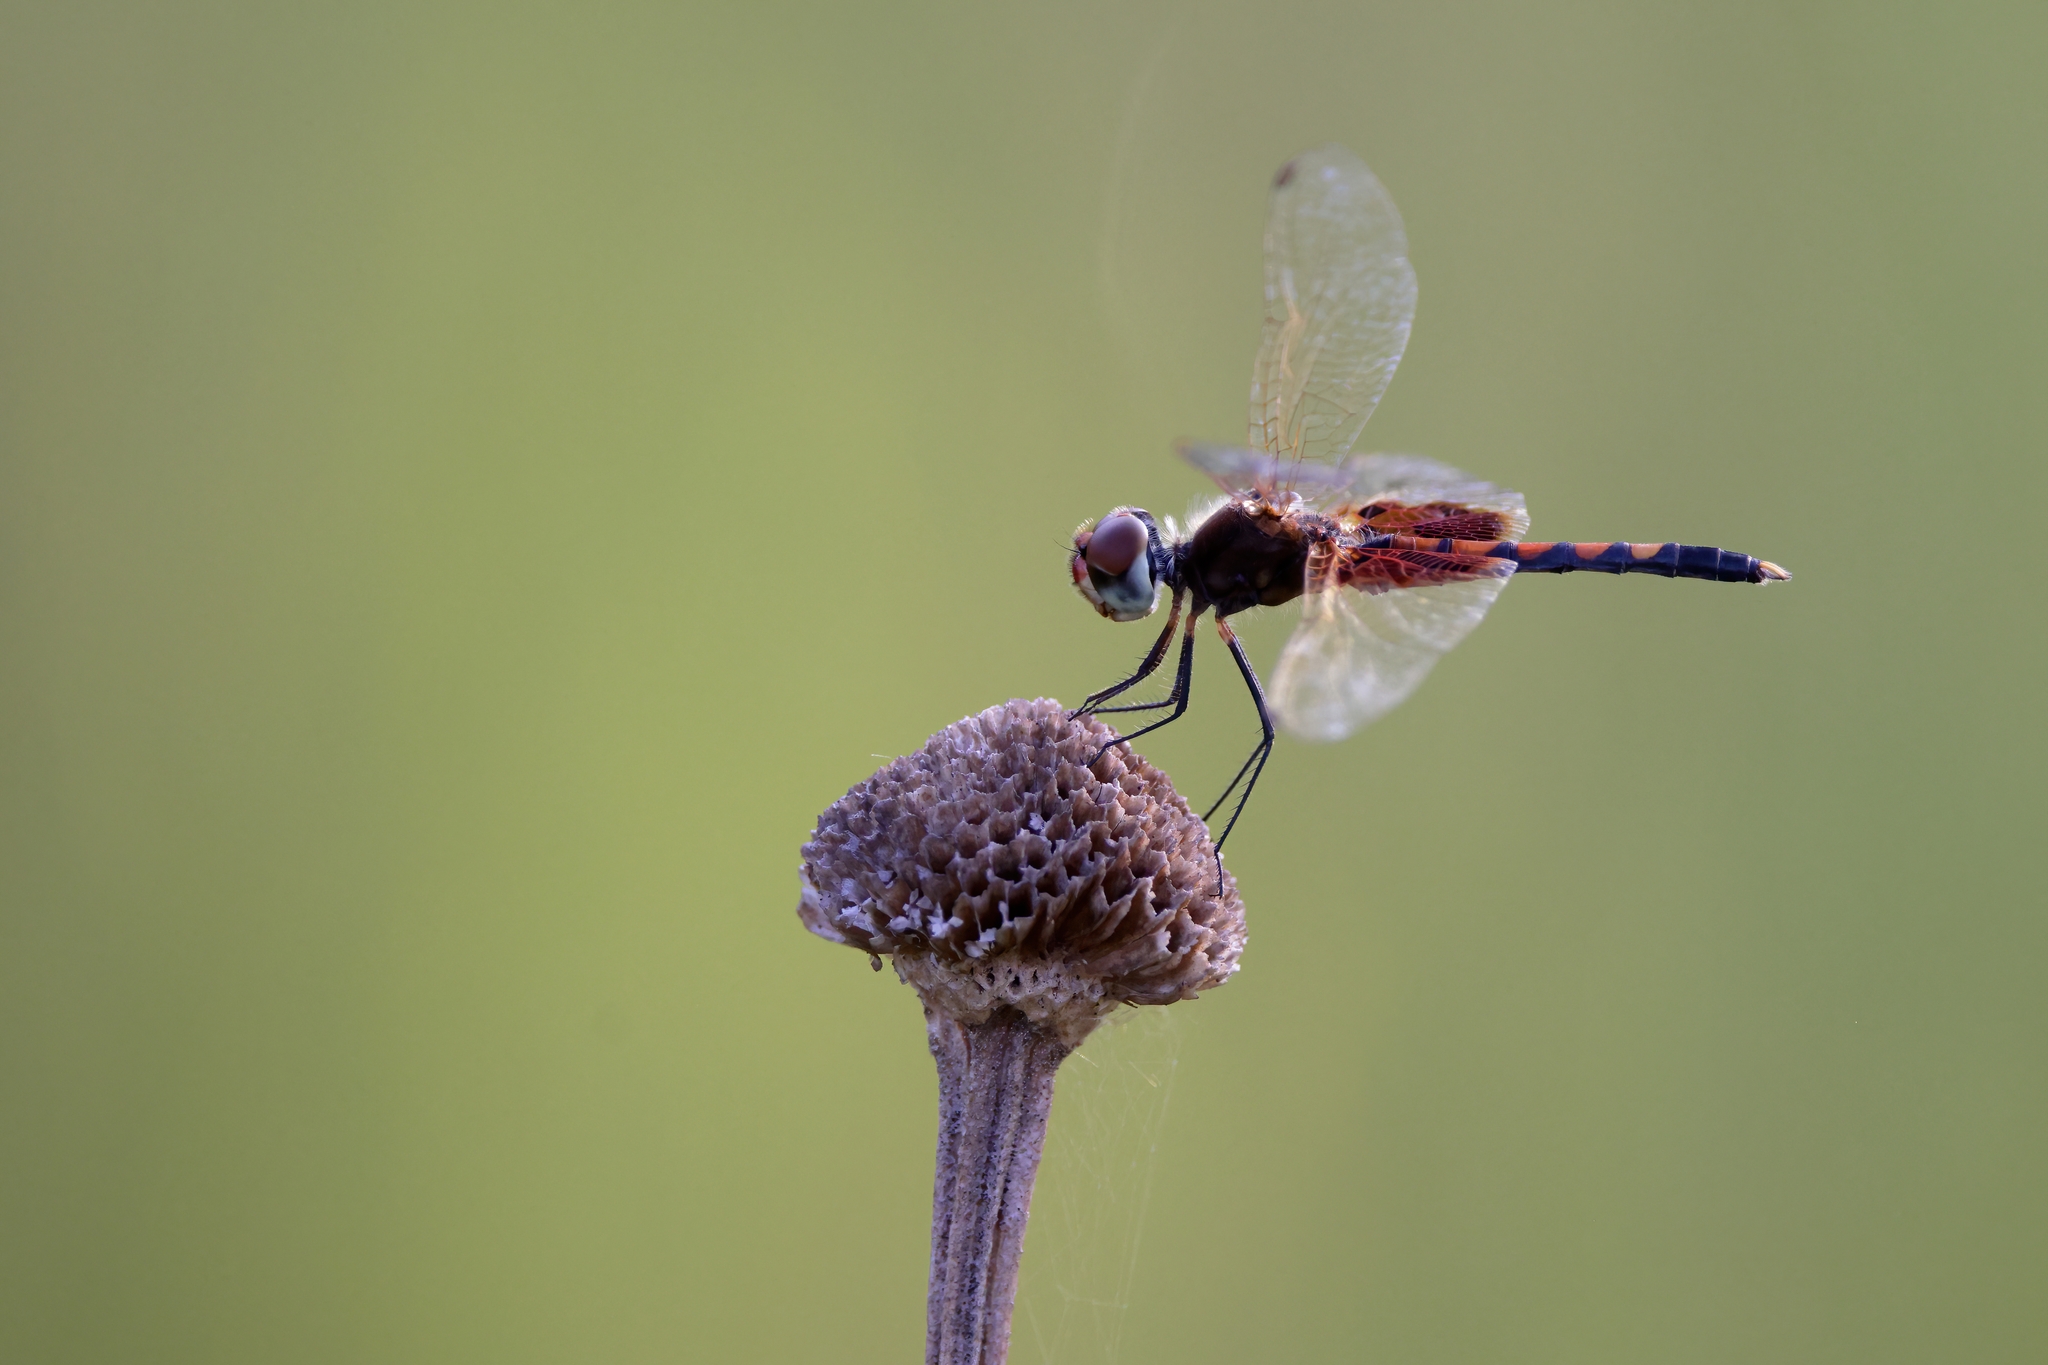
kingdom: Animalia
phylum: Arthropoda
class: Insecta
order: Odonata
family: Libellulidae
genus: Celithemis
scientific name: Celithemis amanda
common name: Amanda's pennant
